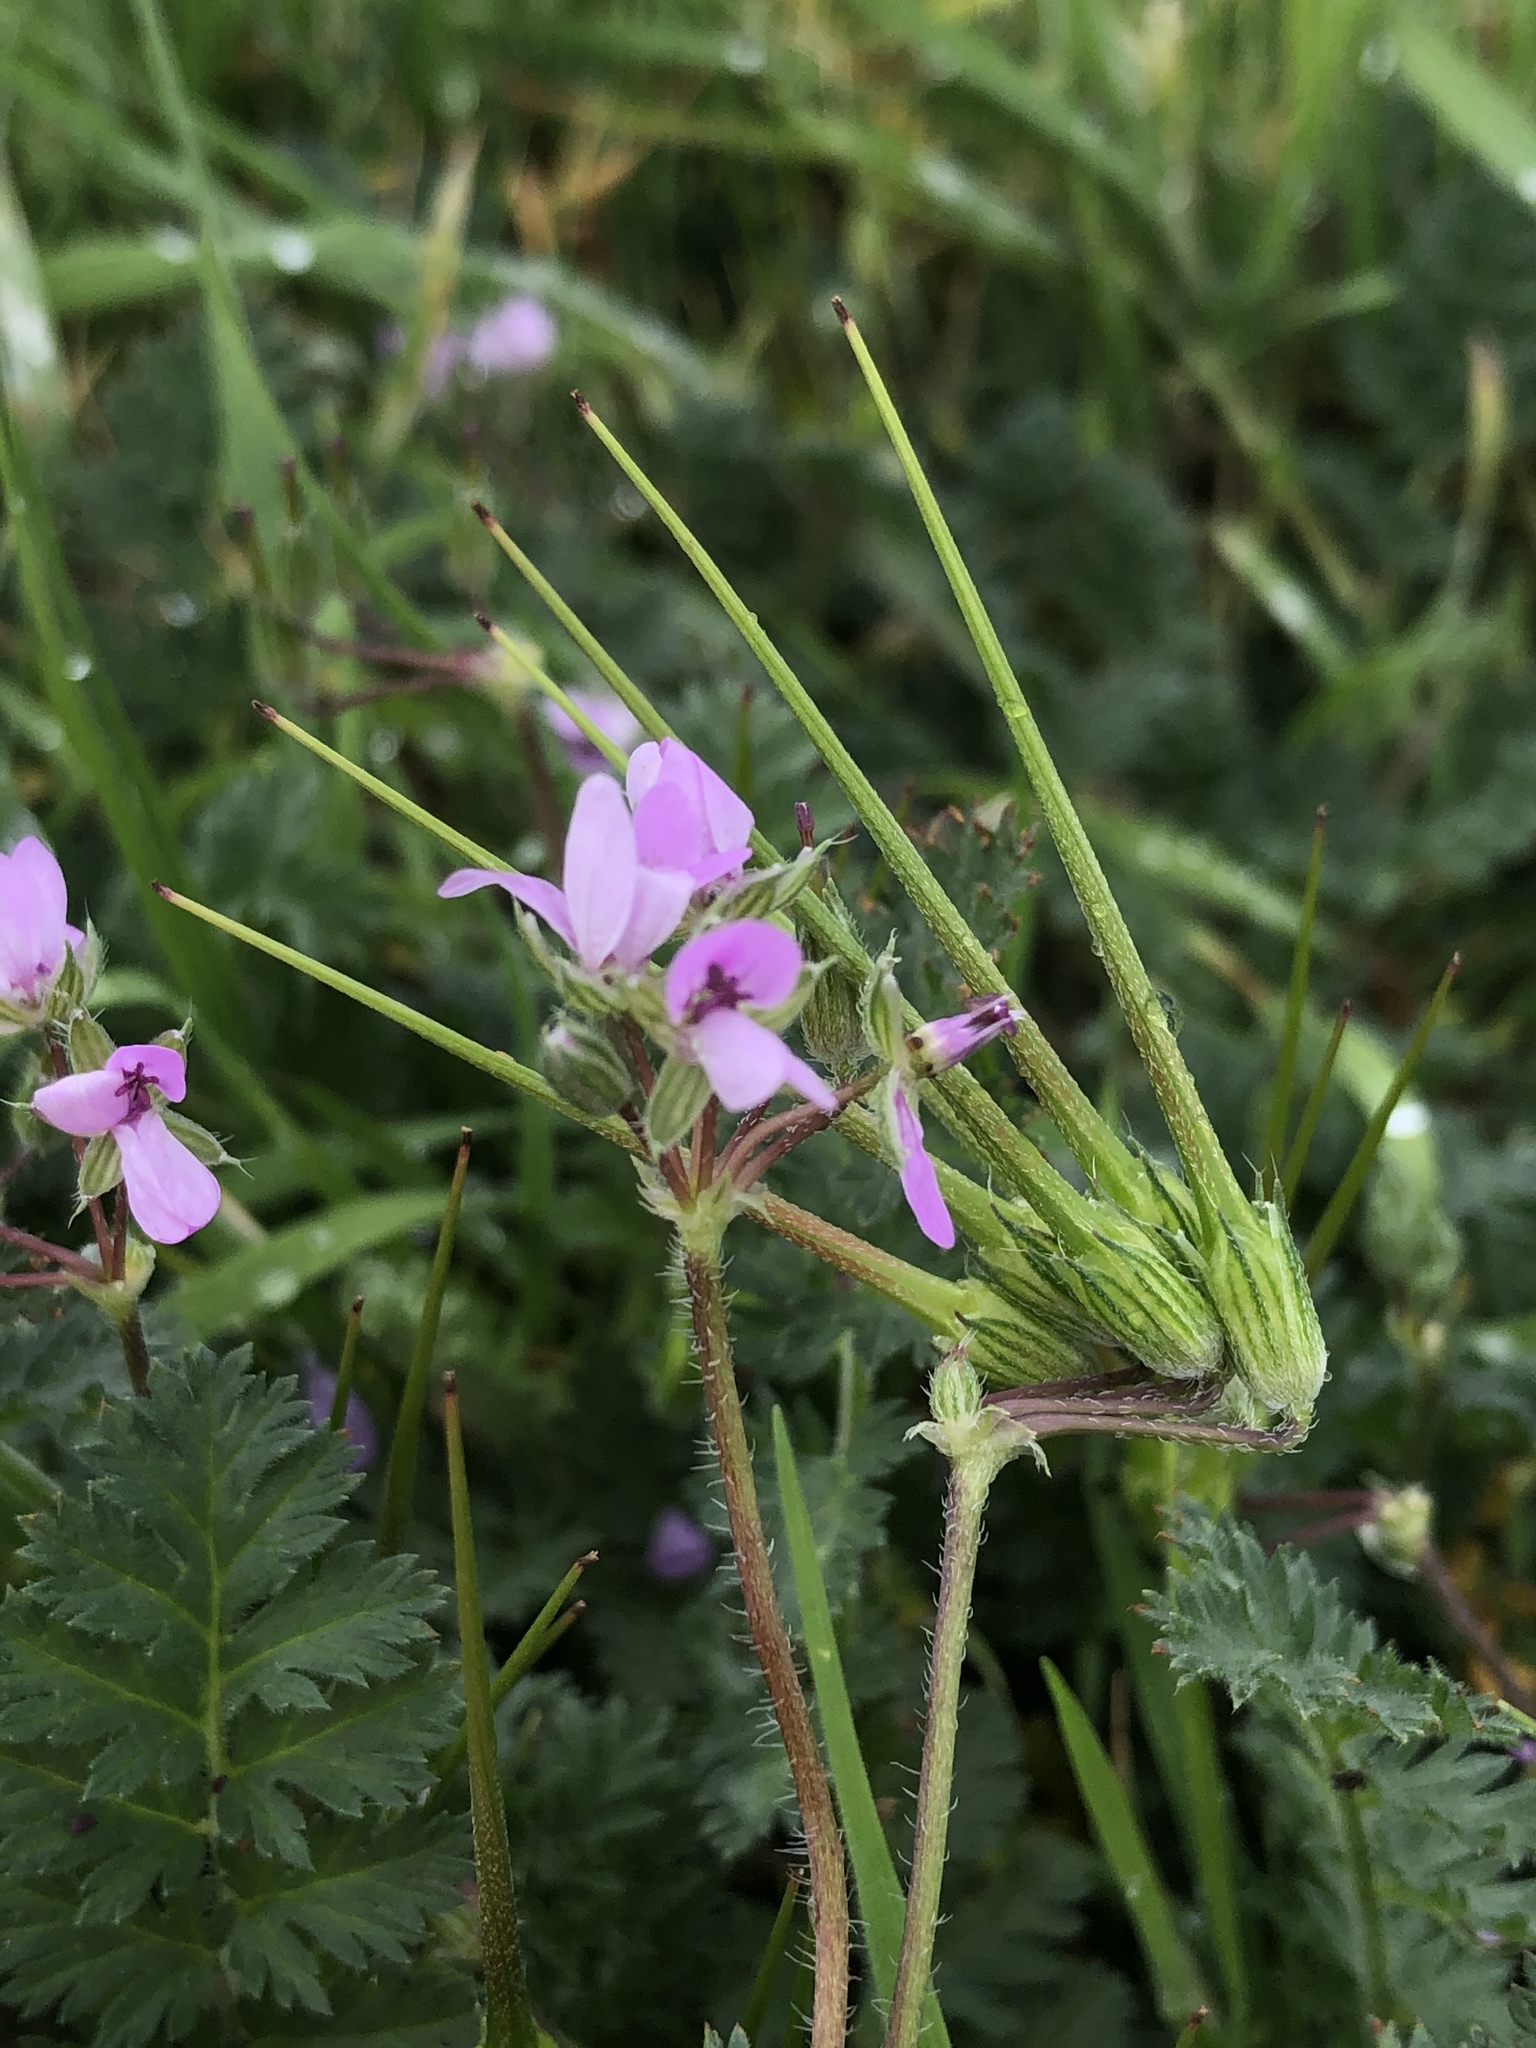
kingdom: Plantae
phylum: Tracheophyta
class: Magnoliopsida
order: Geraniales
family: Geraniaceae
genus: Erodium
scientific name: Erodium cicutarium
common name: Common stork's-bill
